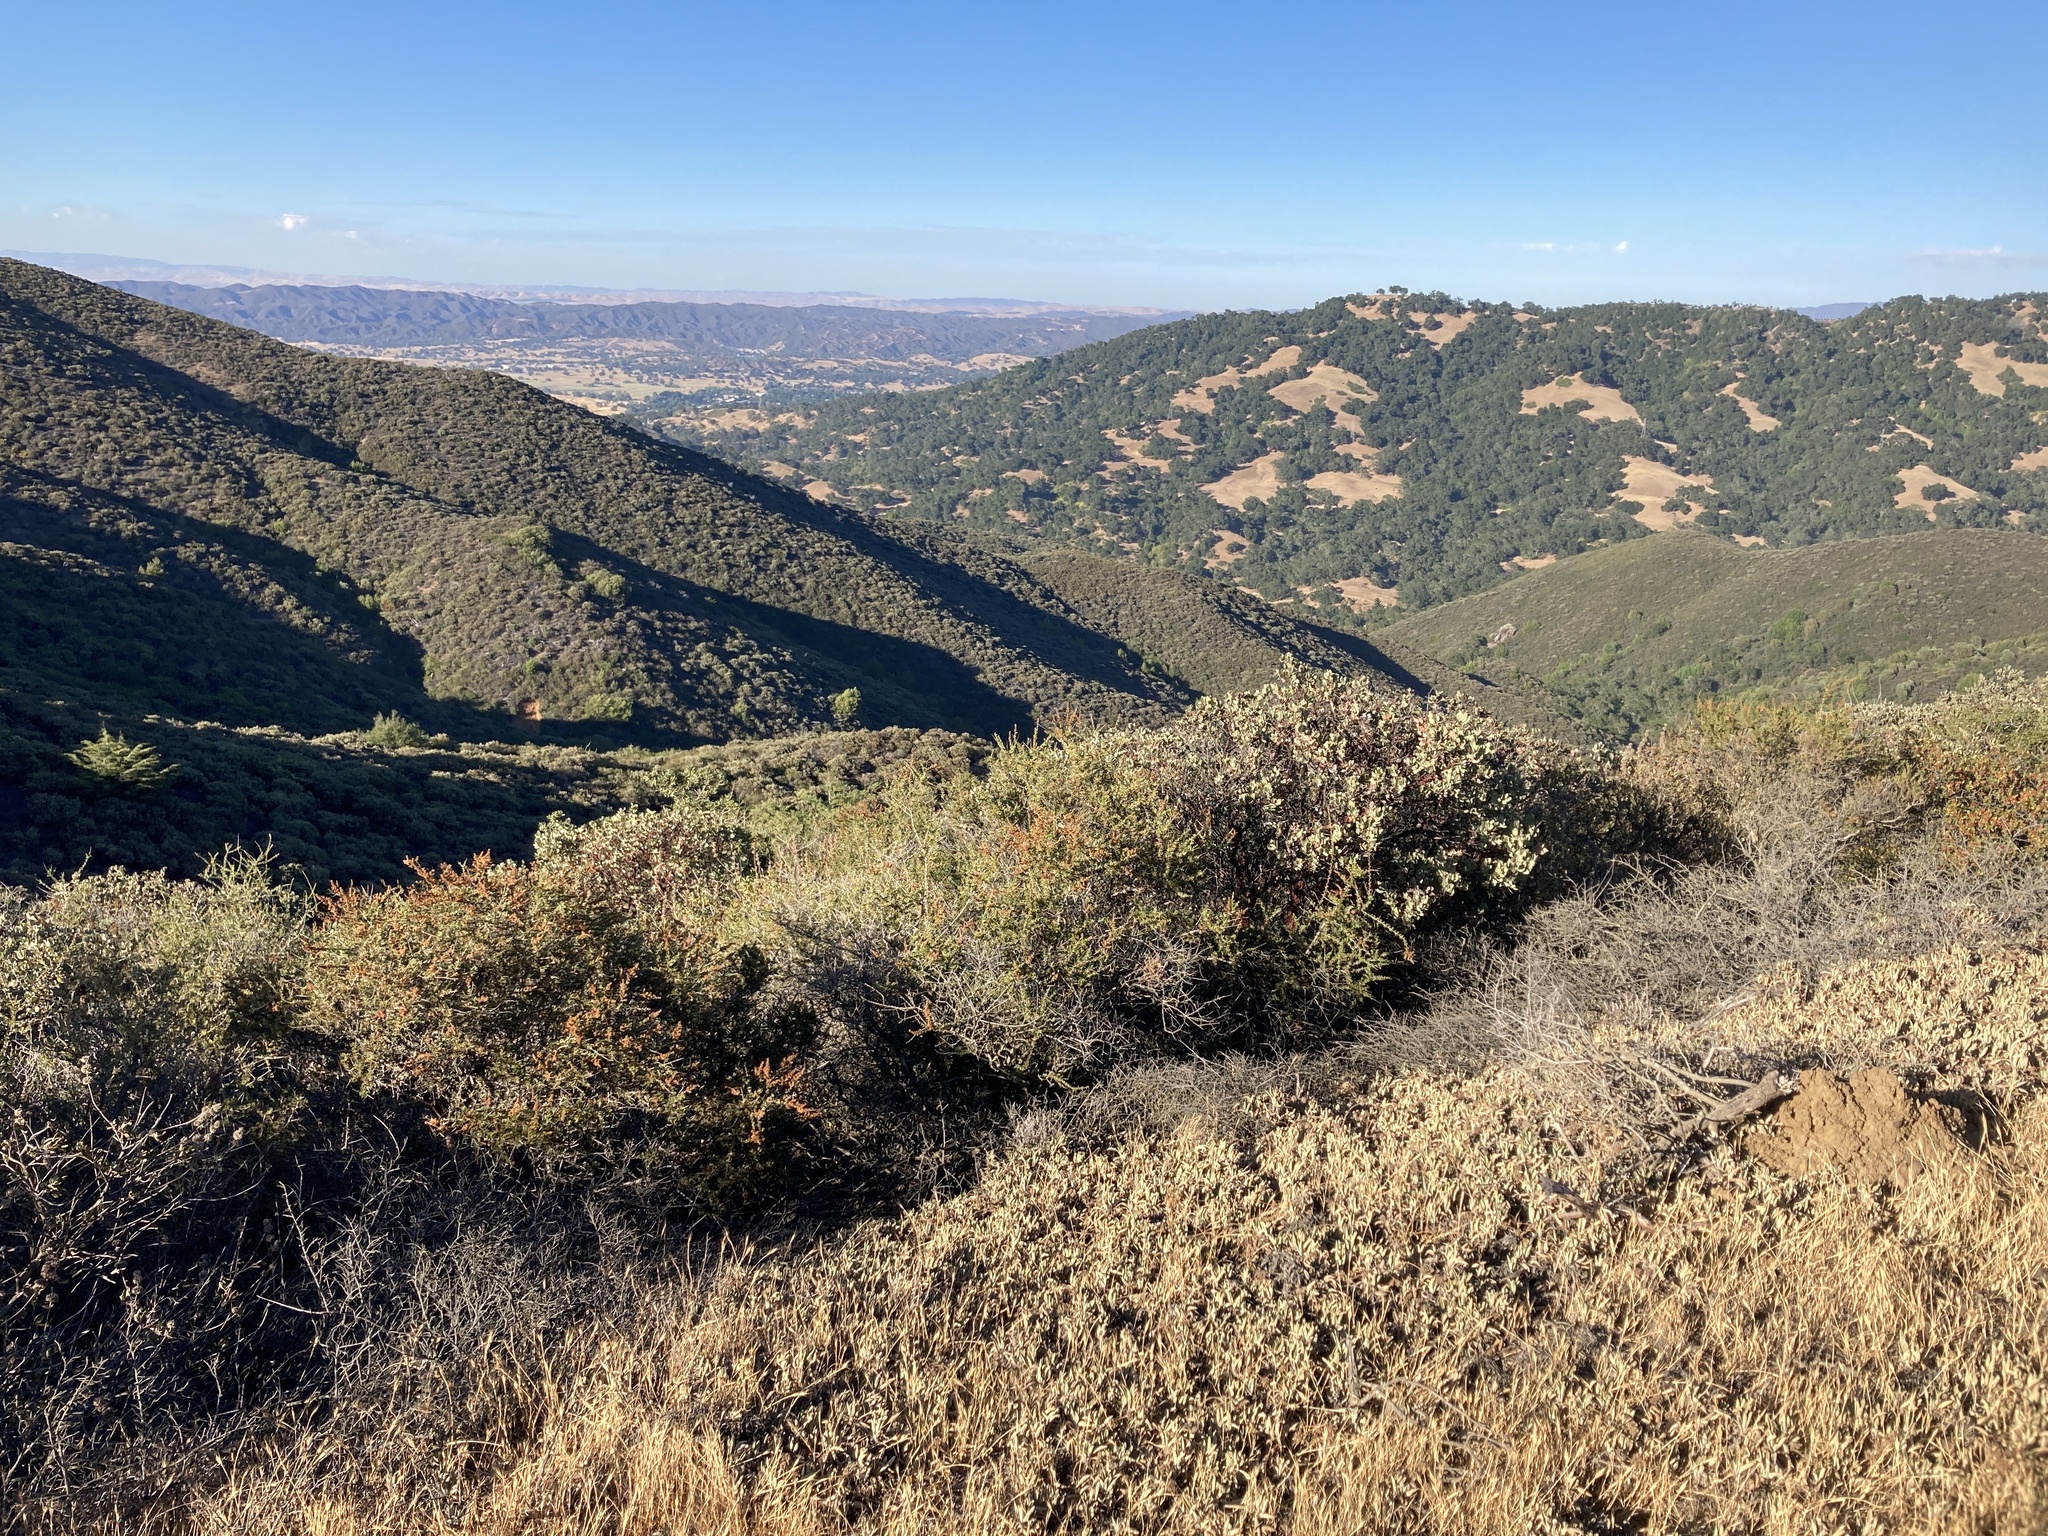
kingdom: Plantae
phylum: Tracheophyta
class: Magnoliopsida
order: Lamiales
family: Lamiaceae
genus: Salvia
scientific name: Salvia sonomensis
